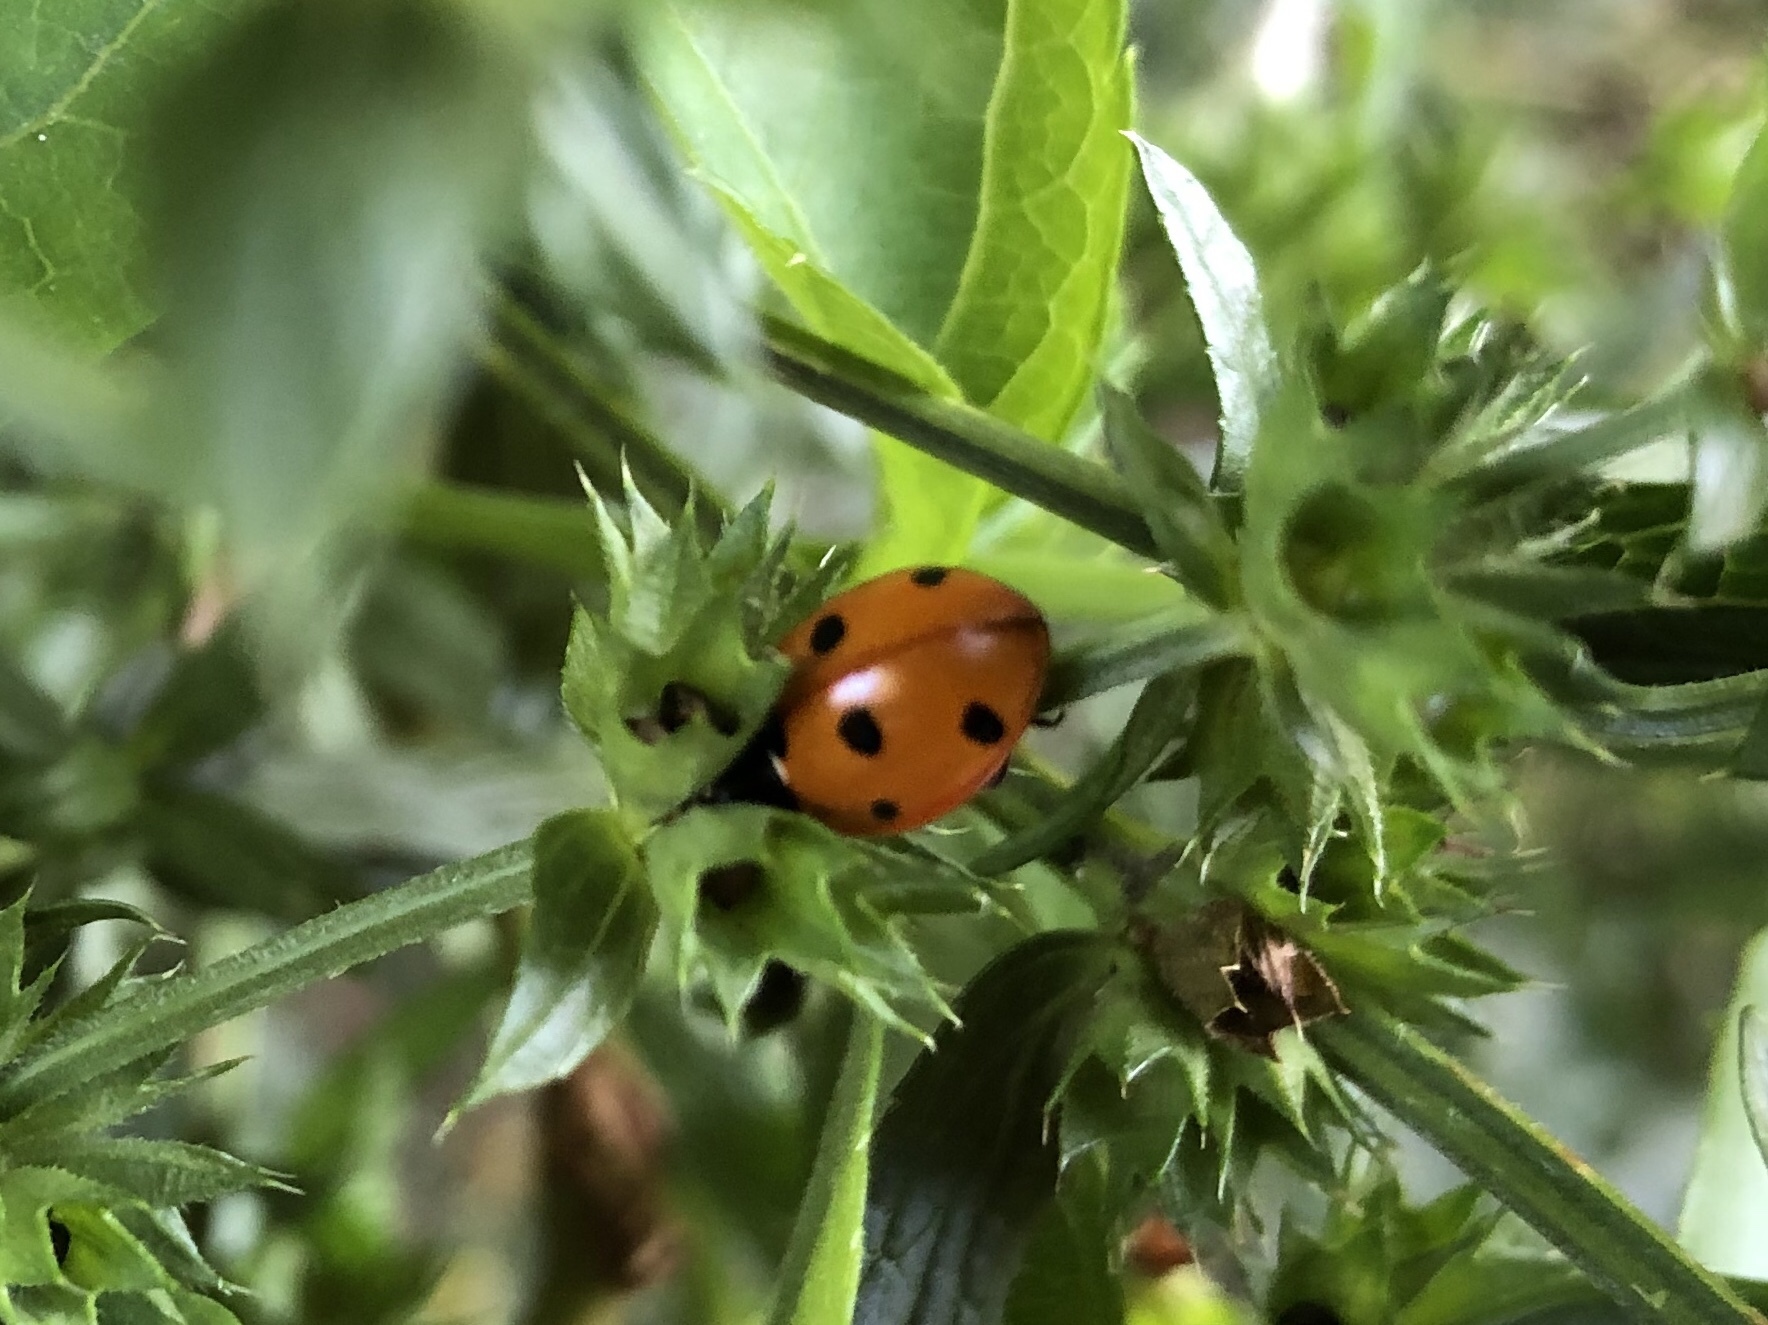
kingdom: Animalia
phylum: Arthropoda
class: Insecta
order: Coleoptera
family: Coccinellidae
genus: Coccinella
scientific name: Coccinella septempunctata
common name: Sevenspotted lady beetle
